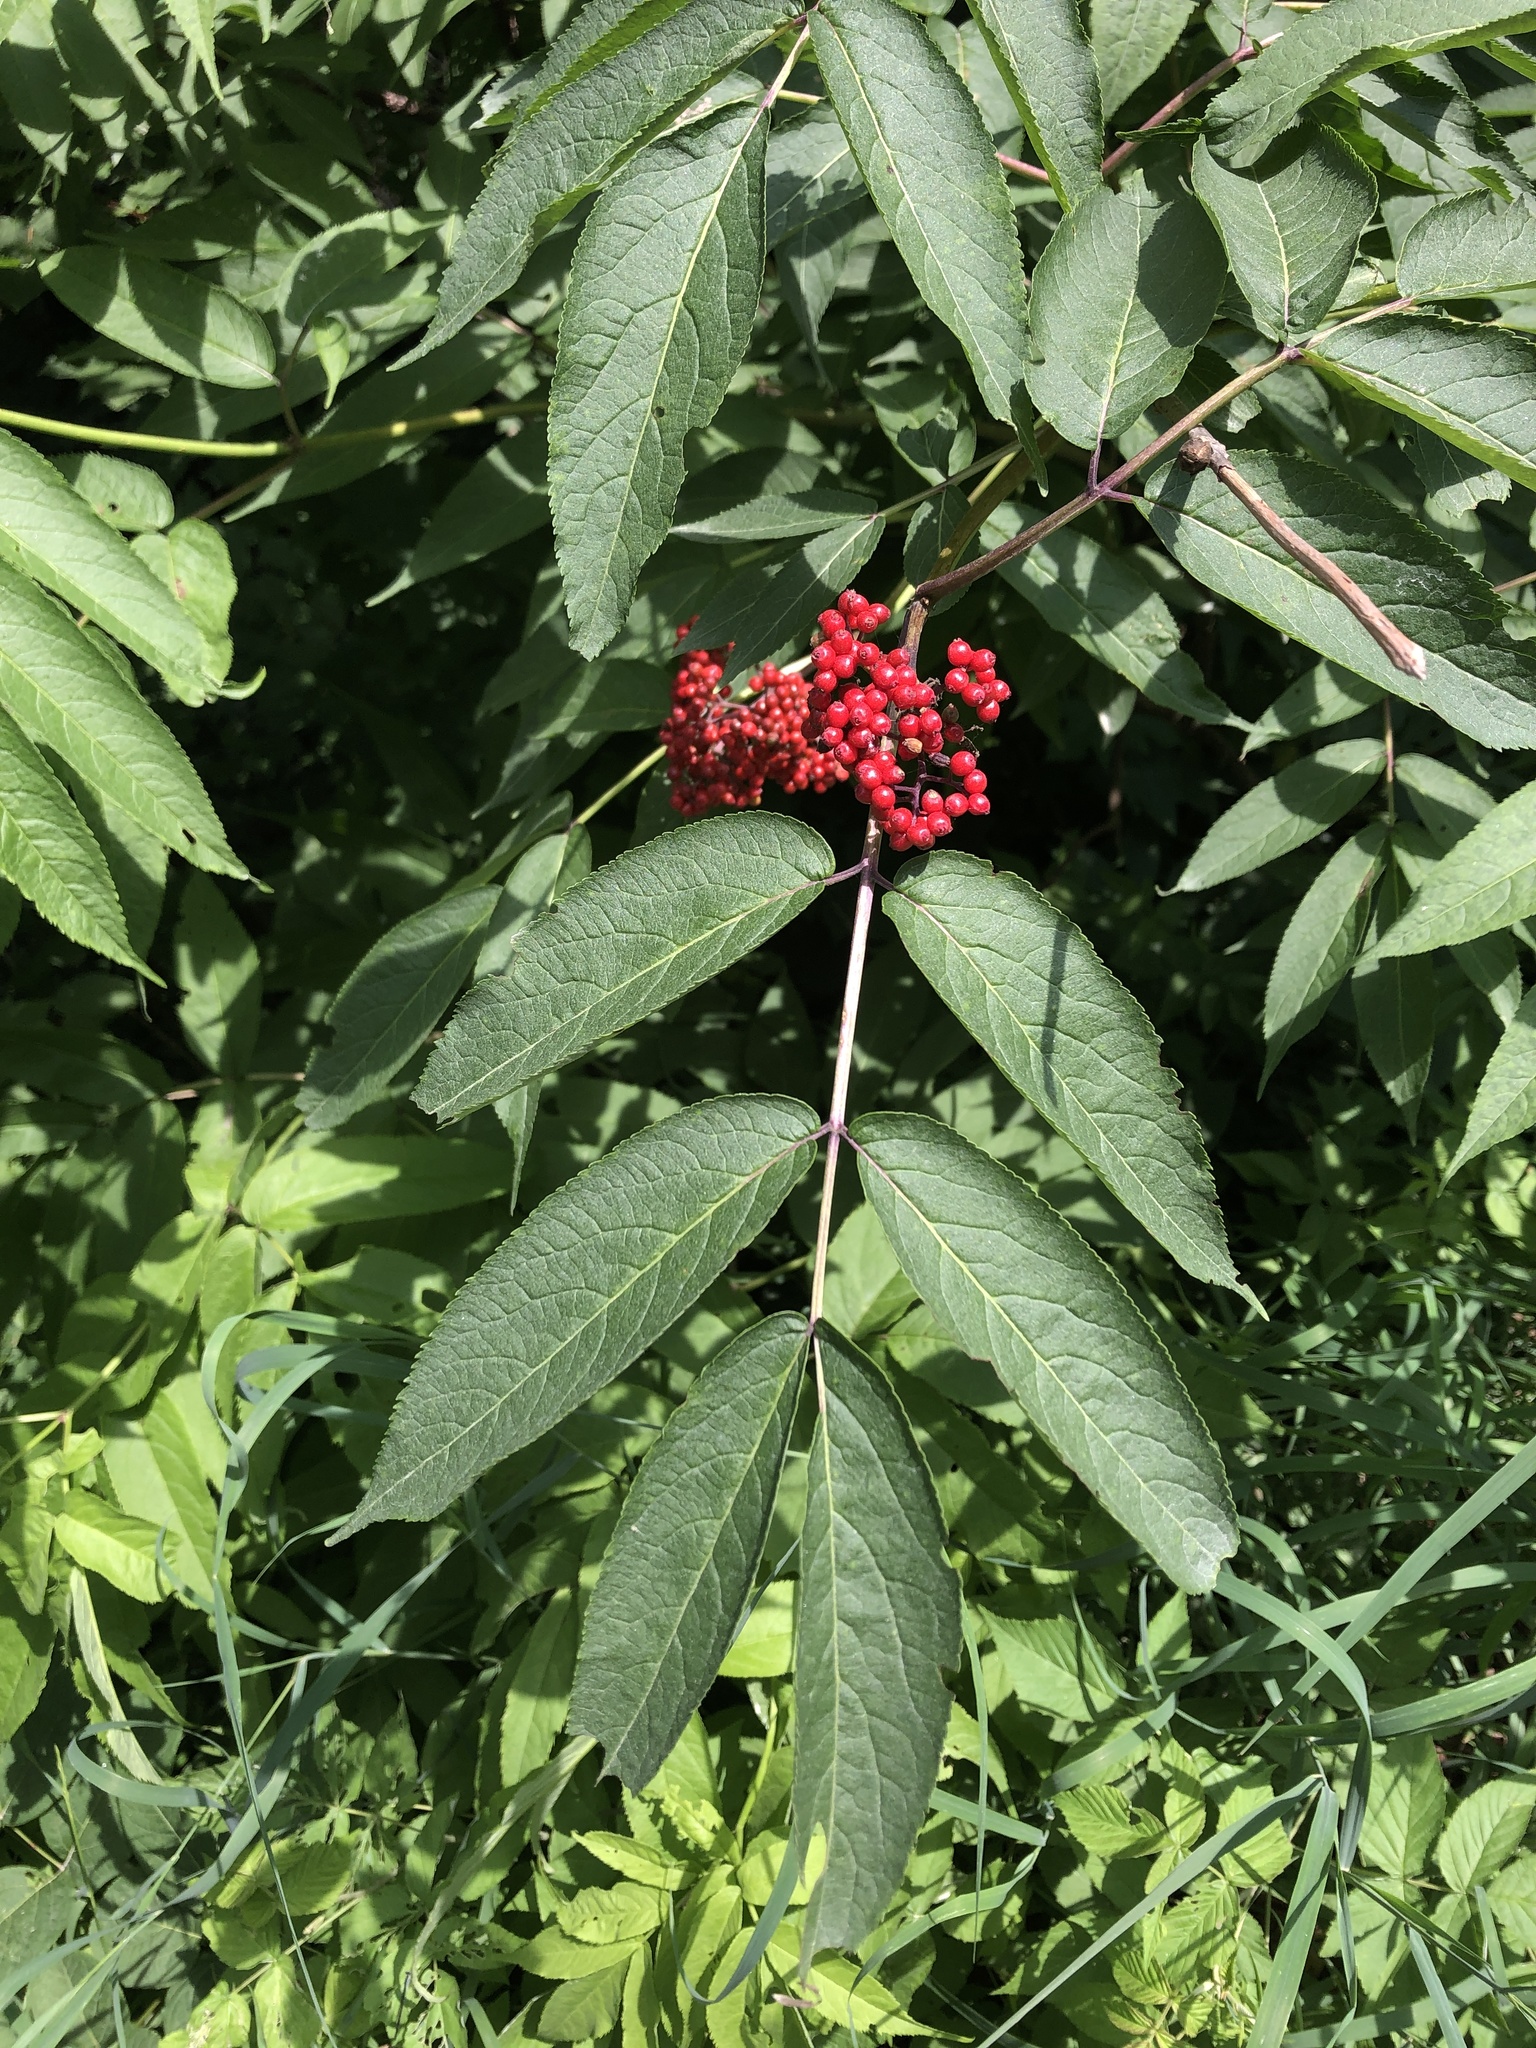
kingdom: Plantae
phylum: Tracheophyta
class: Magnoliopsida
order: Dipsacales
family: Viburnaceae
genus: Sambucus
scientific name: Sambucus racemosa
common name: Red-berried elder
